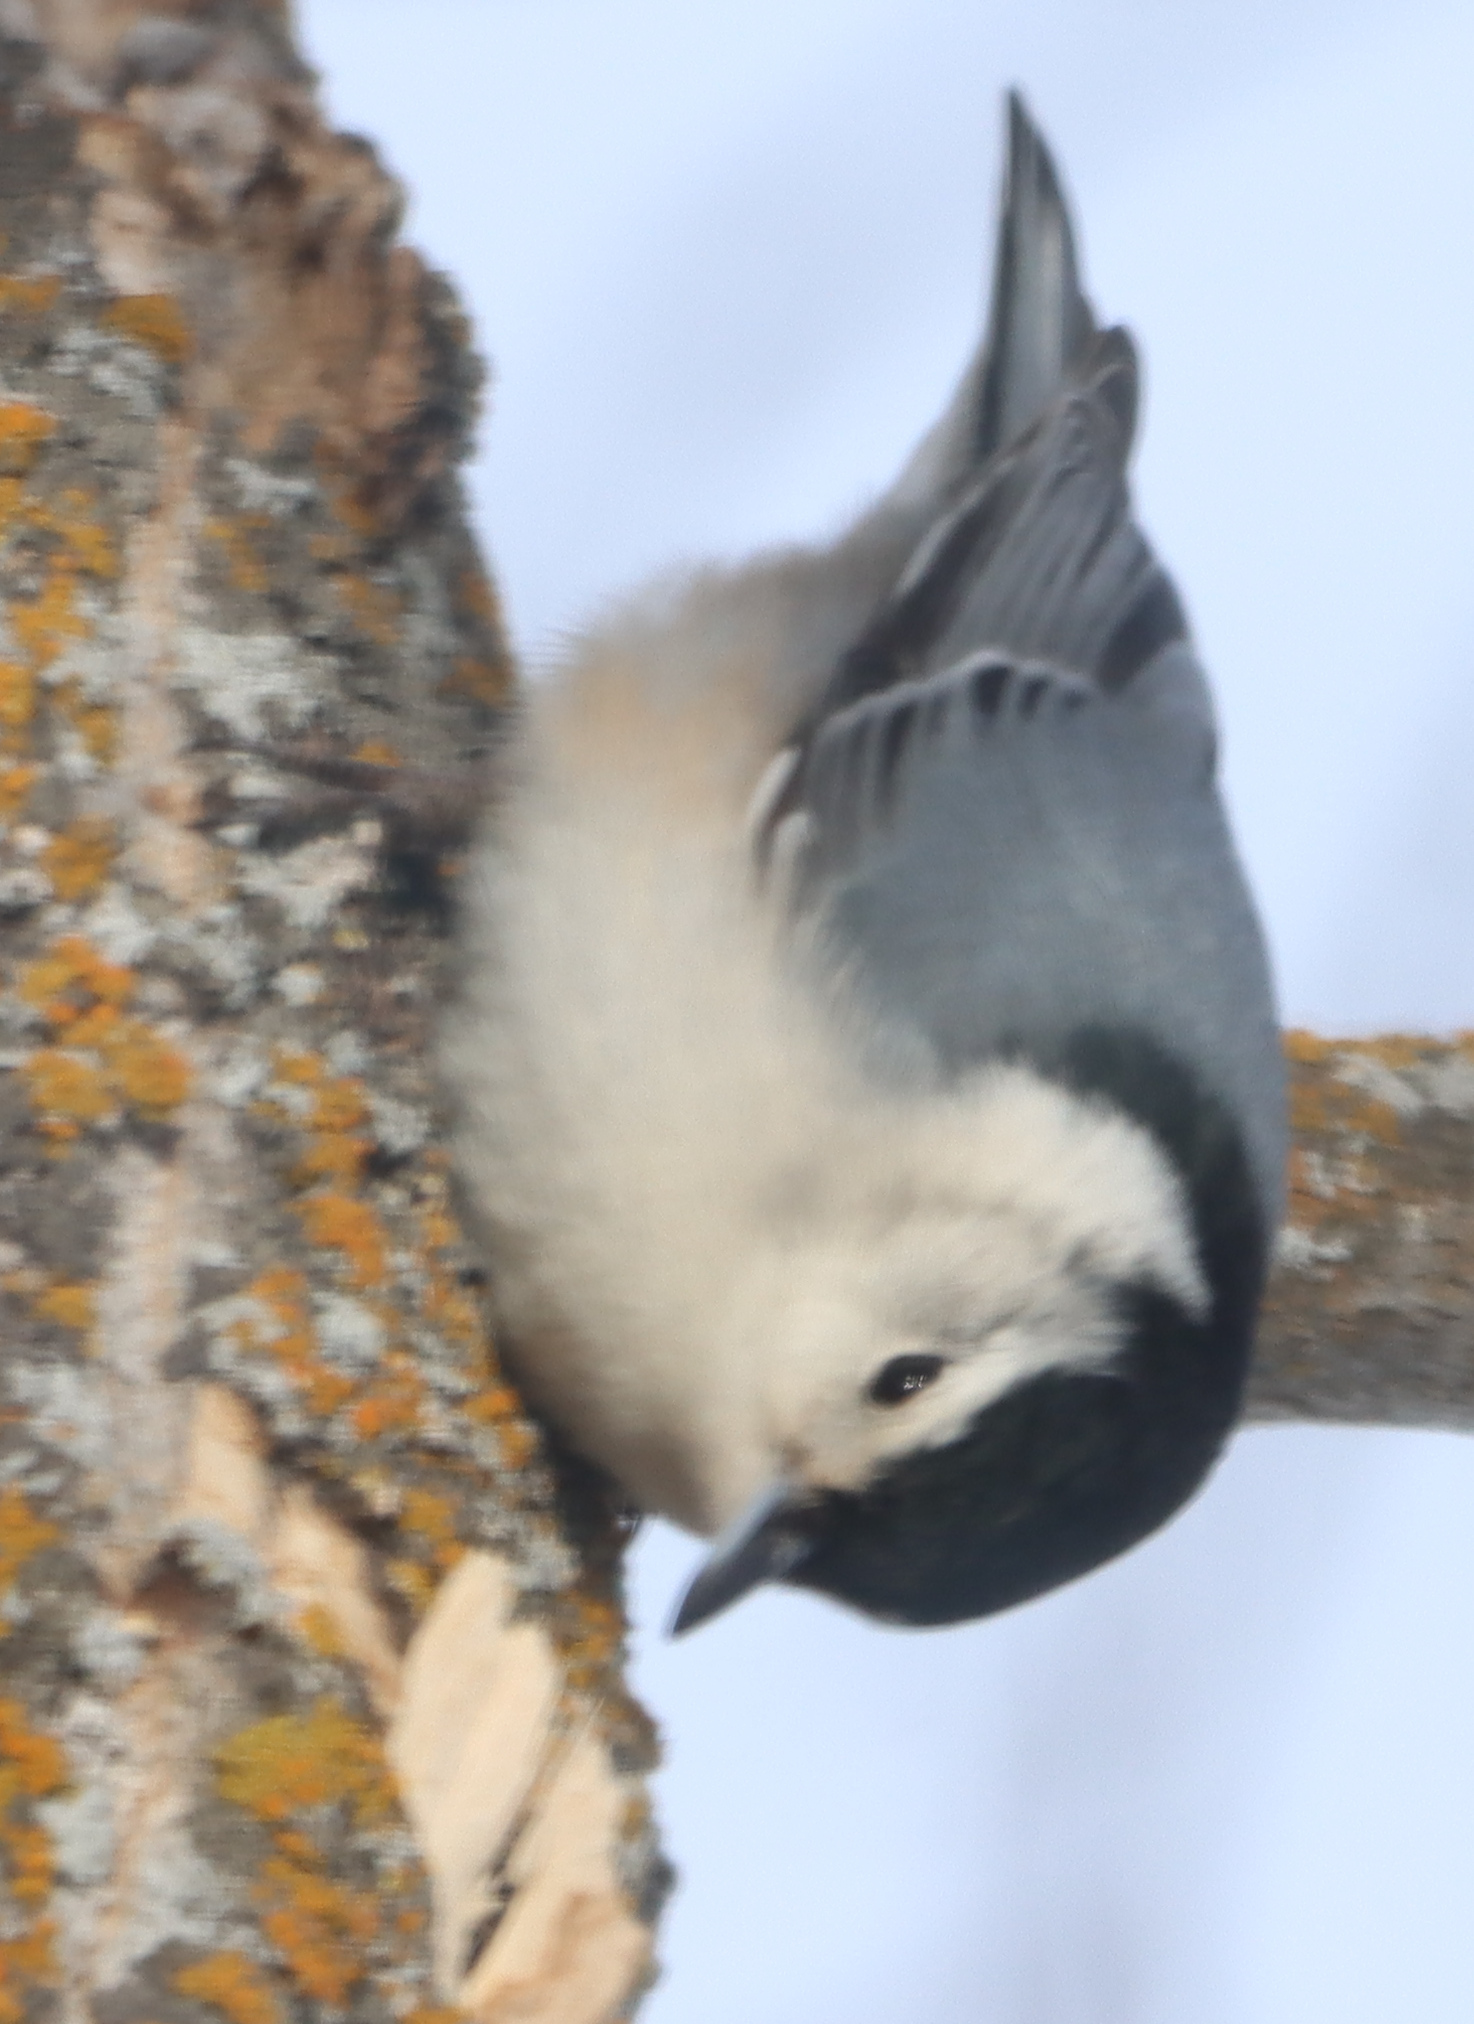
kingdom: Animalia
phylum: Chordata
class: Aves
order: Passeriformes
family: Sittidae
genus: Sitta
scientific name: Sitta carolinensis
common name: White-breasted nuthatch
